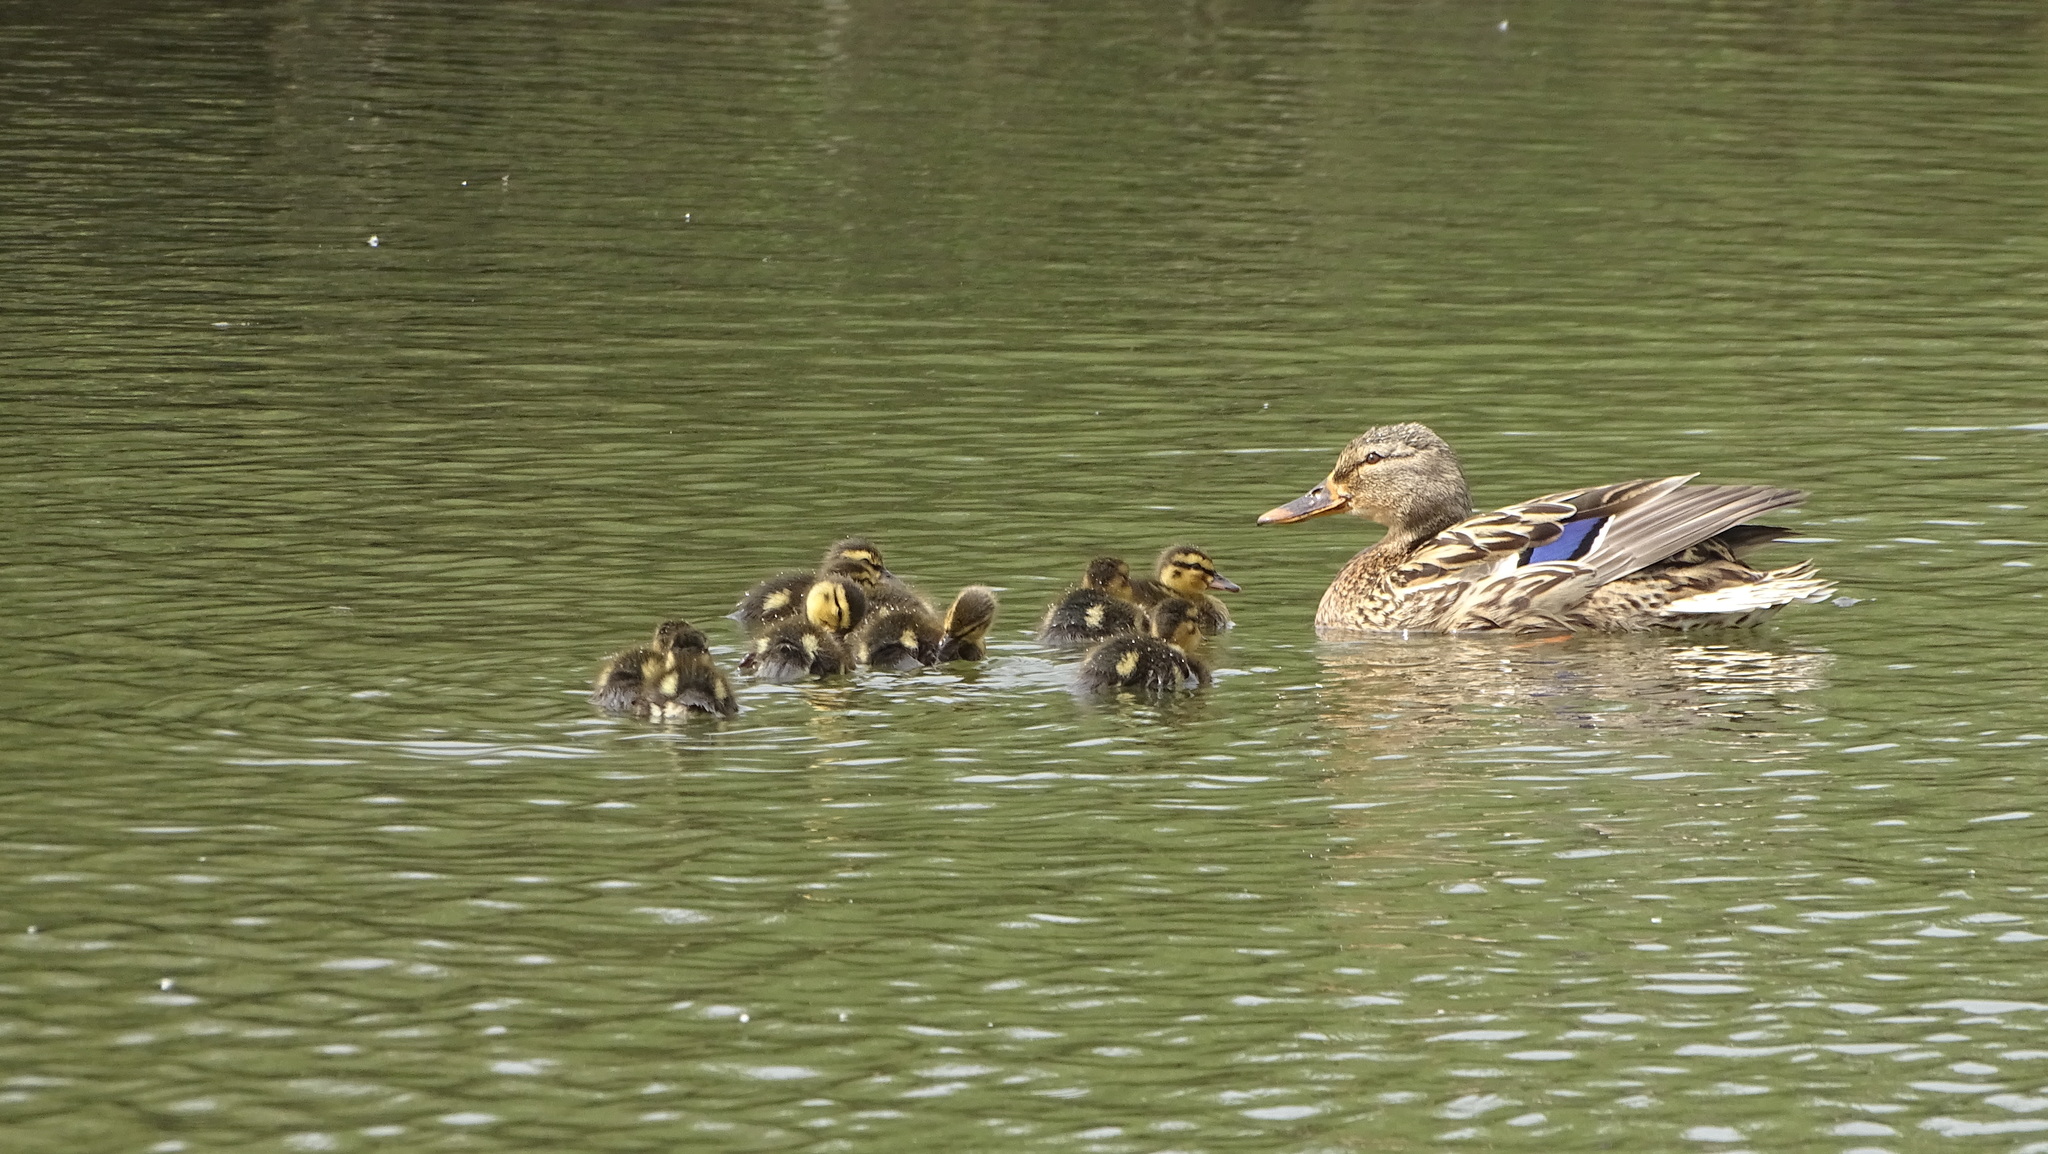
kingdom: Animalia
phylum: Chordata
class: Aves
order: Anseriformes
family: Anatidae
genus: Anas
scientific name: Anas platyrhynchos
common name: Mallard
